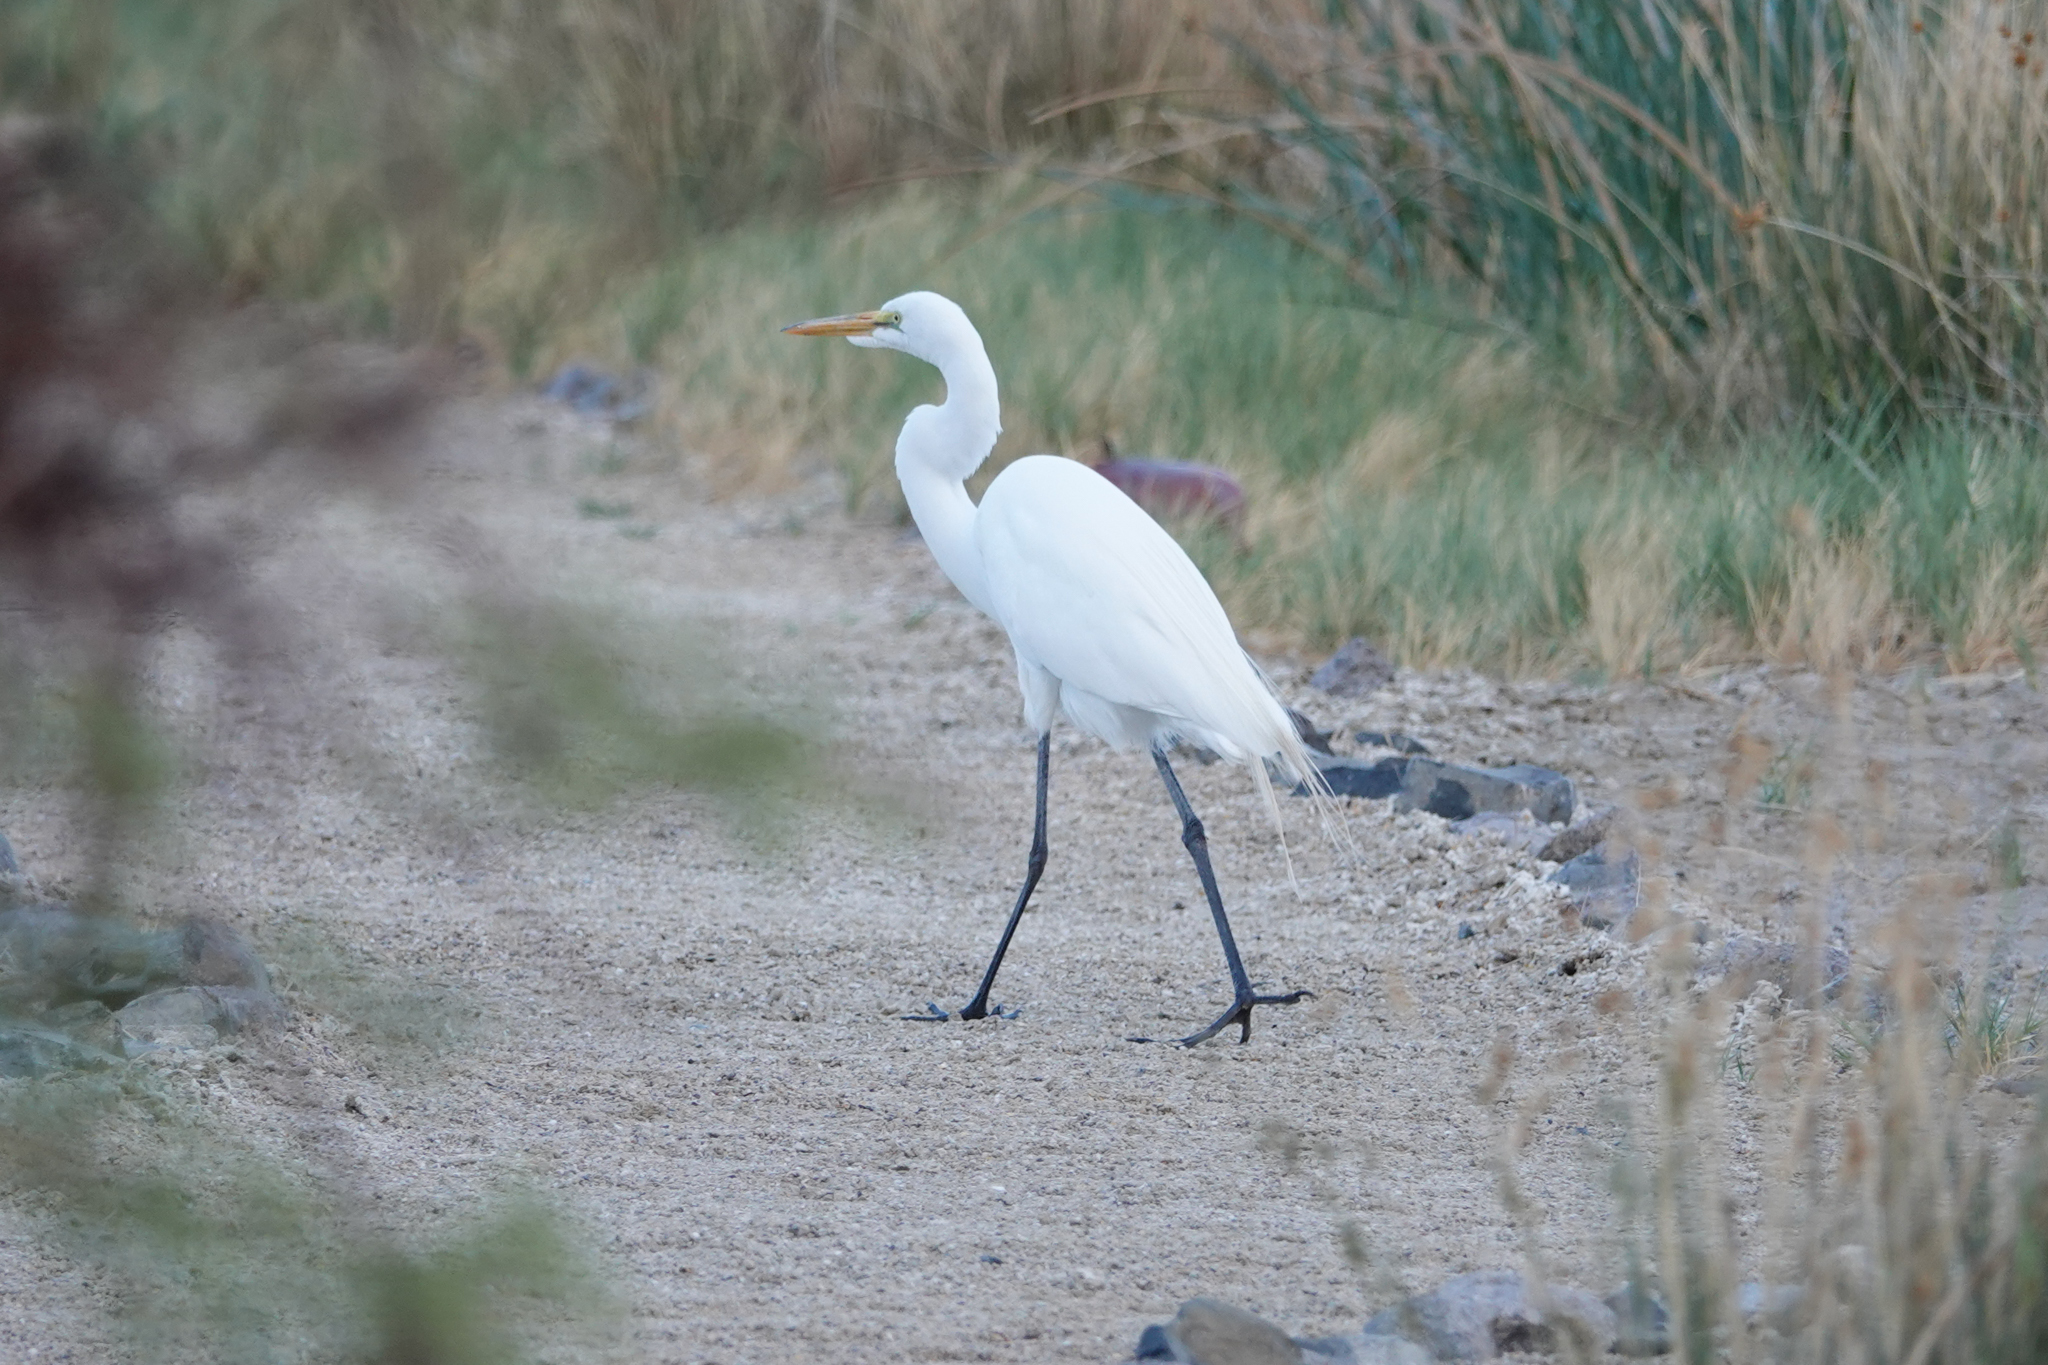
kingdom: Animalia
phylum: Chordata
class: Aves
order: Pelecaniformes
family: Ardeidae
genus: Ardea
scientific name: Ardea alba
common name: Great egret
